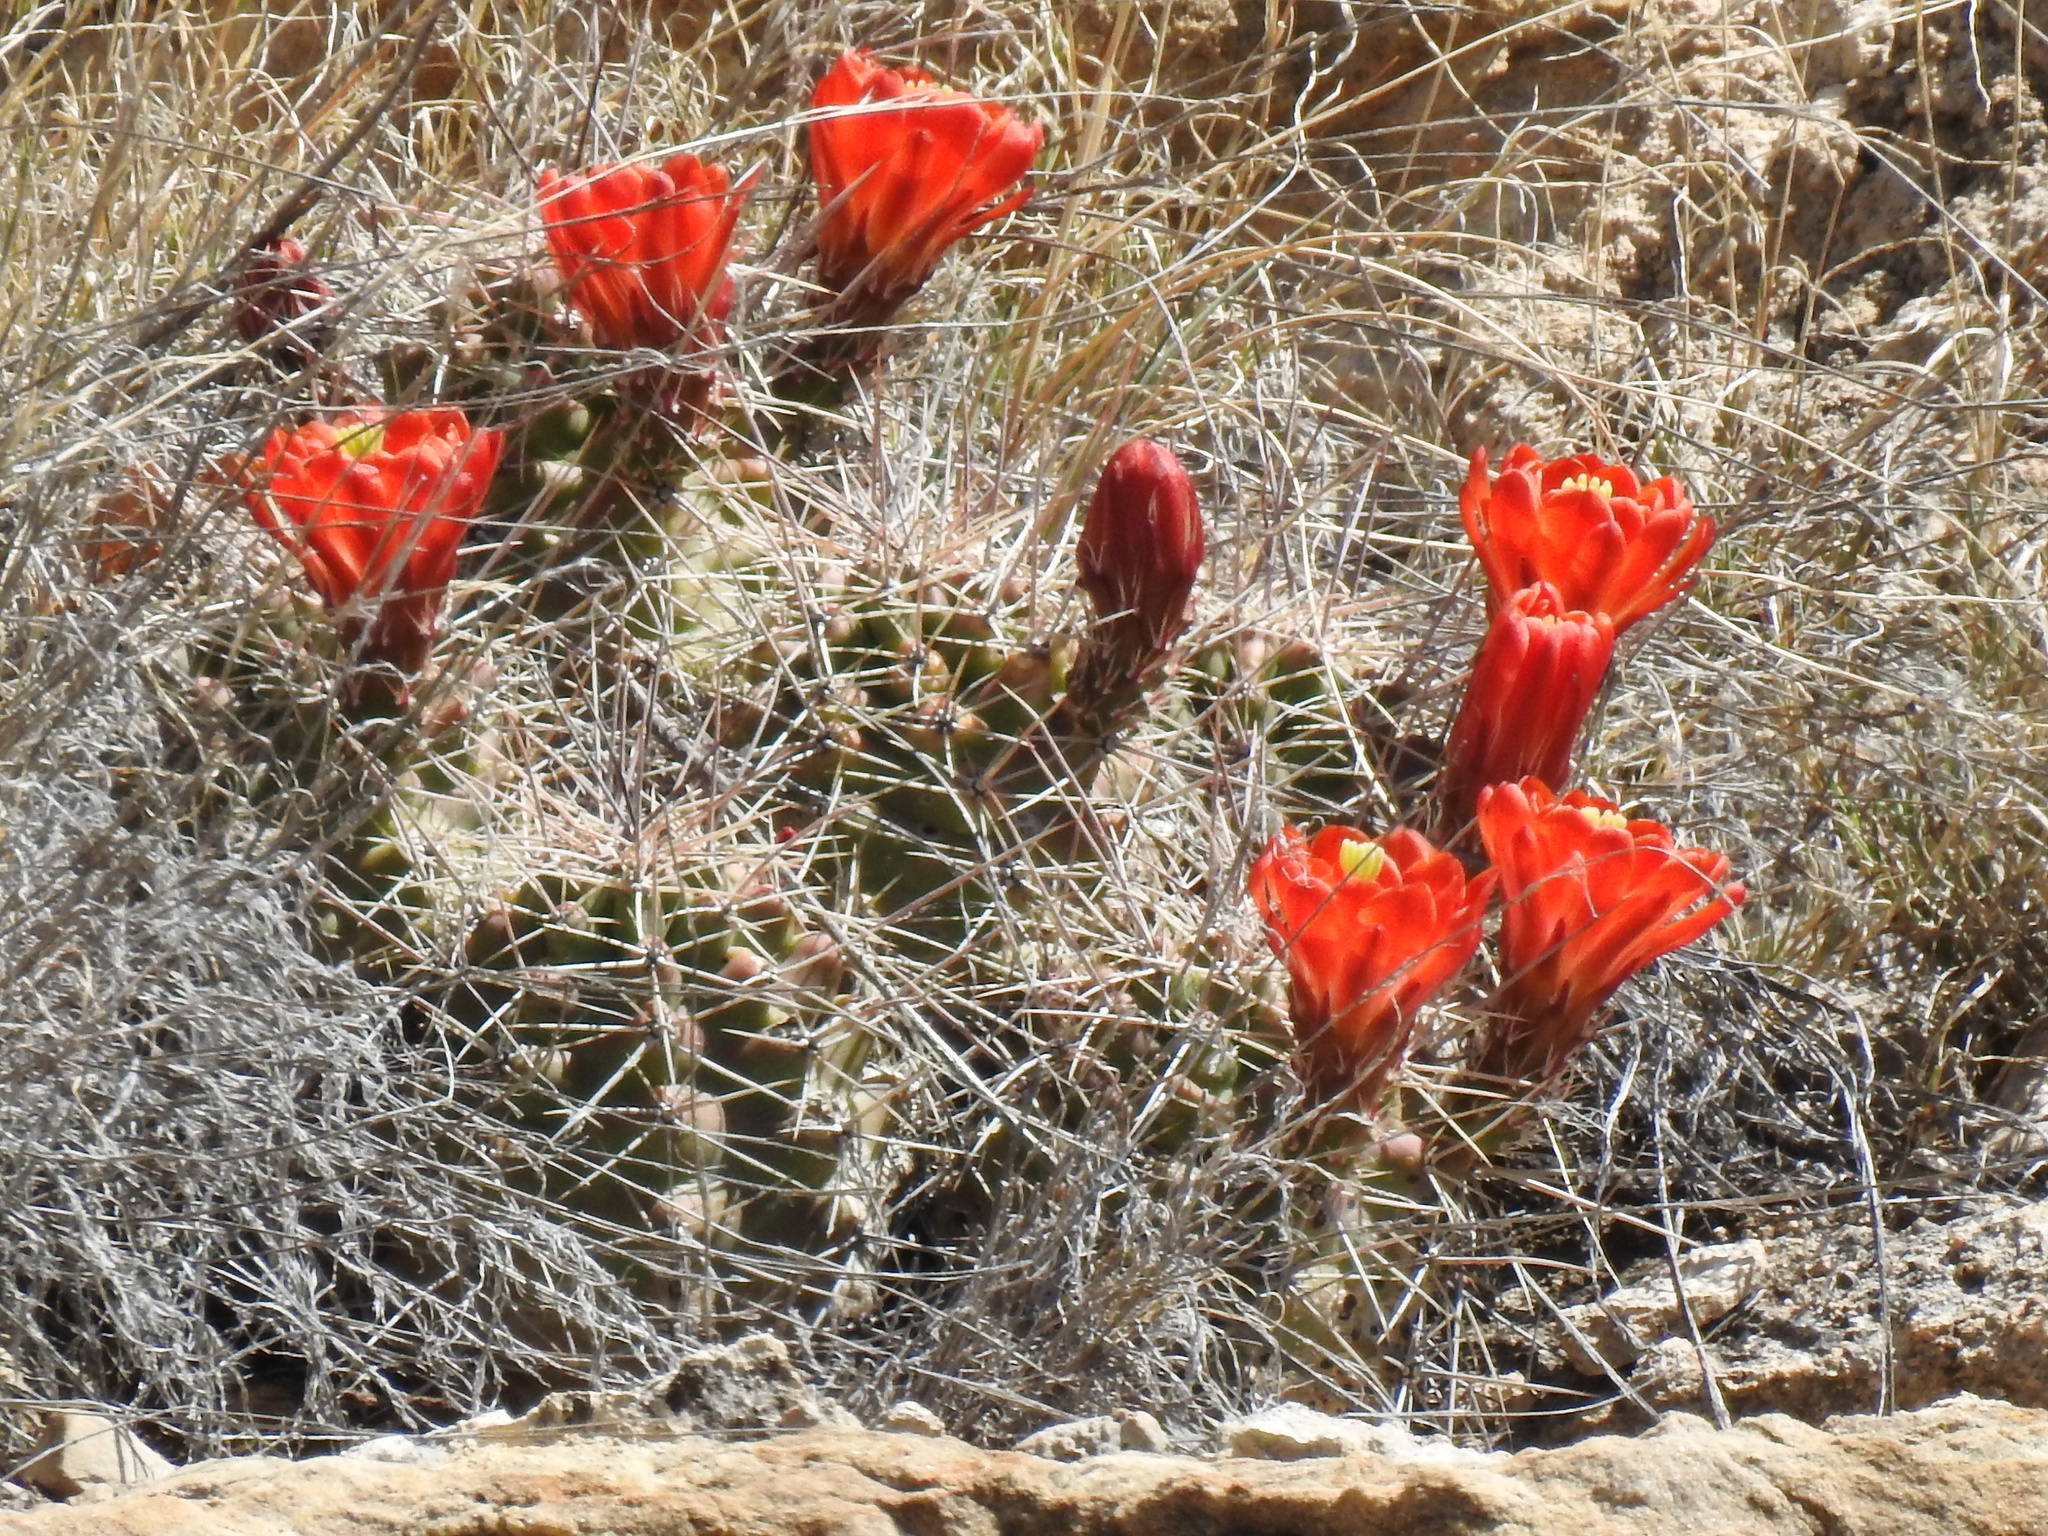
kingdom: Plantae
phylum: Tracheophyta
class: Magnoliopsida
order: Caryophyllales
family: Cactaceae
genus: Echinocereus
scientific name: Echinocereus coccineus
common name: Scarlet hedgehog cactus
